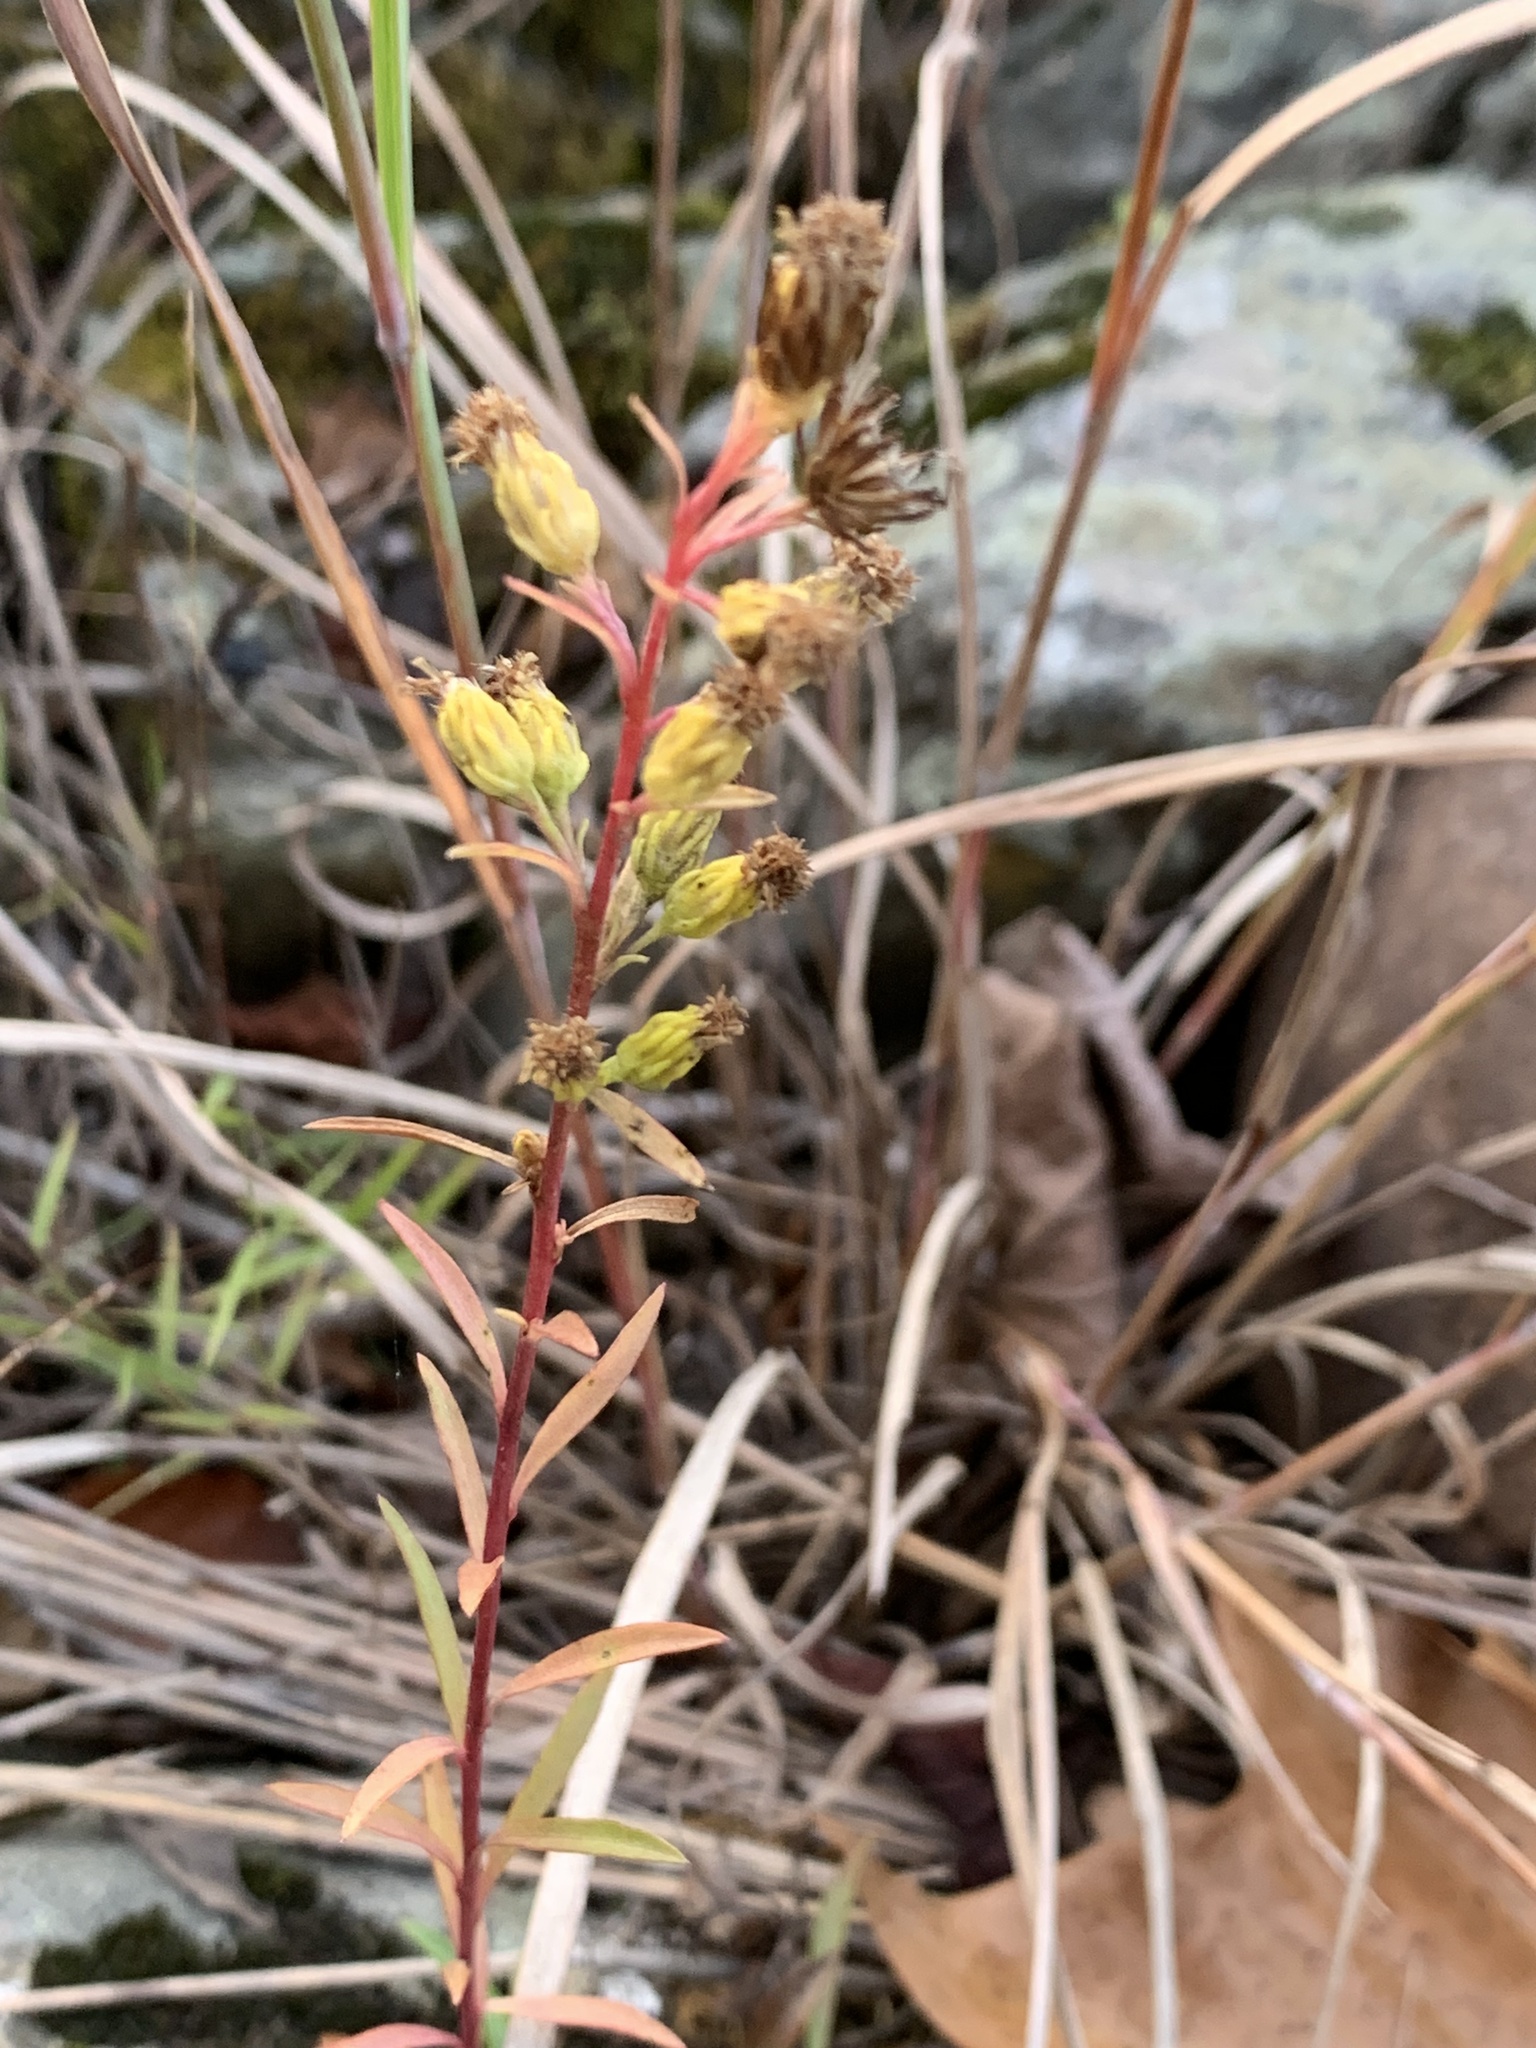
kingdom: Plantae
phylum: Tracheophyta
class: Magnoliopsida
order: Asterales
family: Asteraceae
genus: Solidago
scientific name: Solidago racemosa
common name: Lake ontario goldenrod
